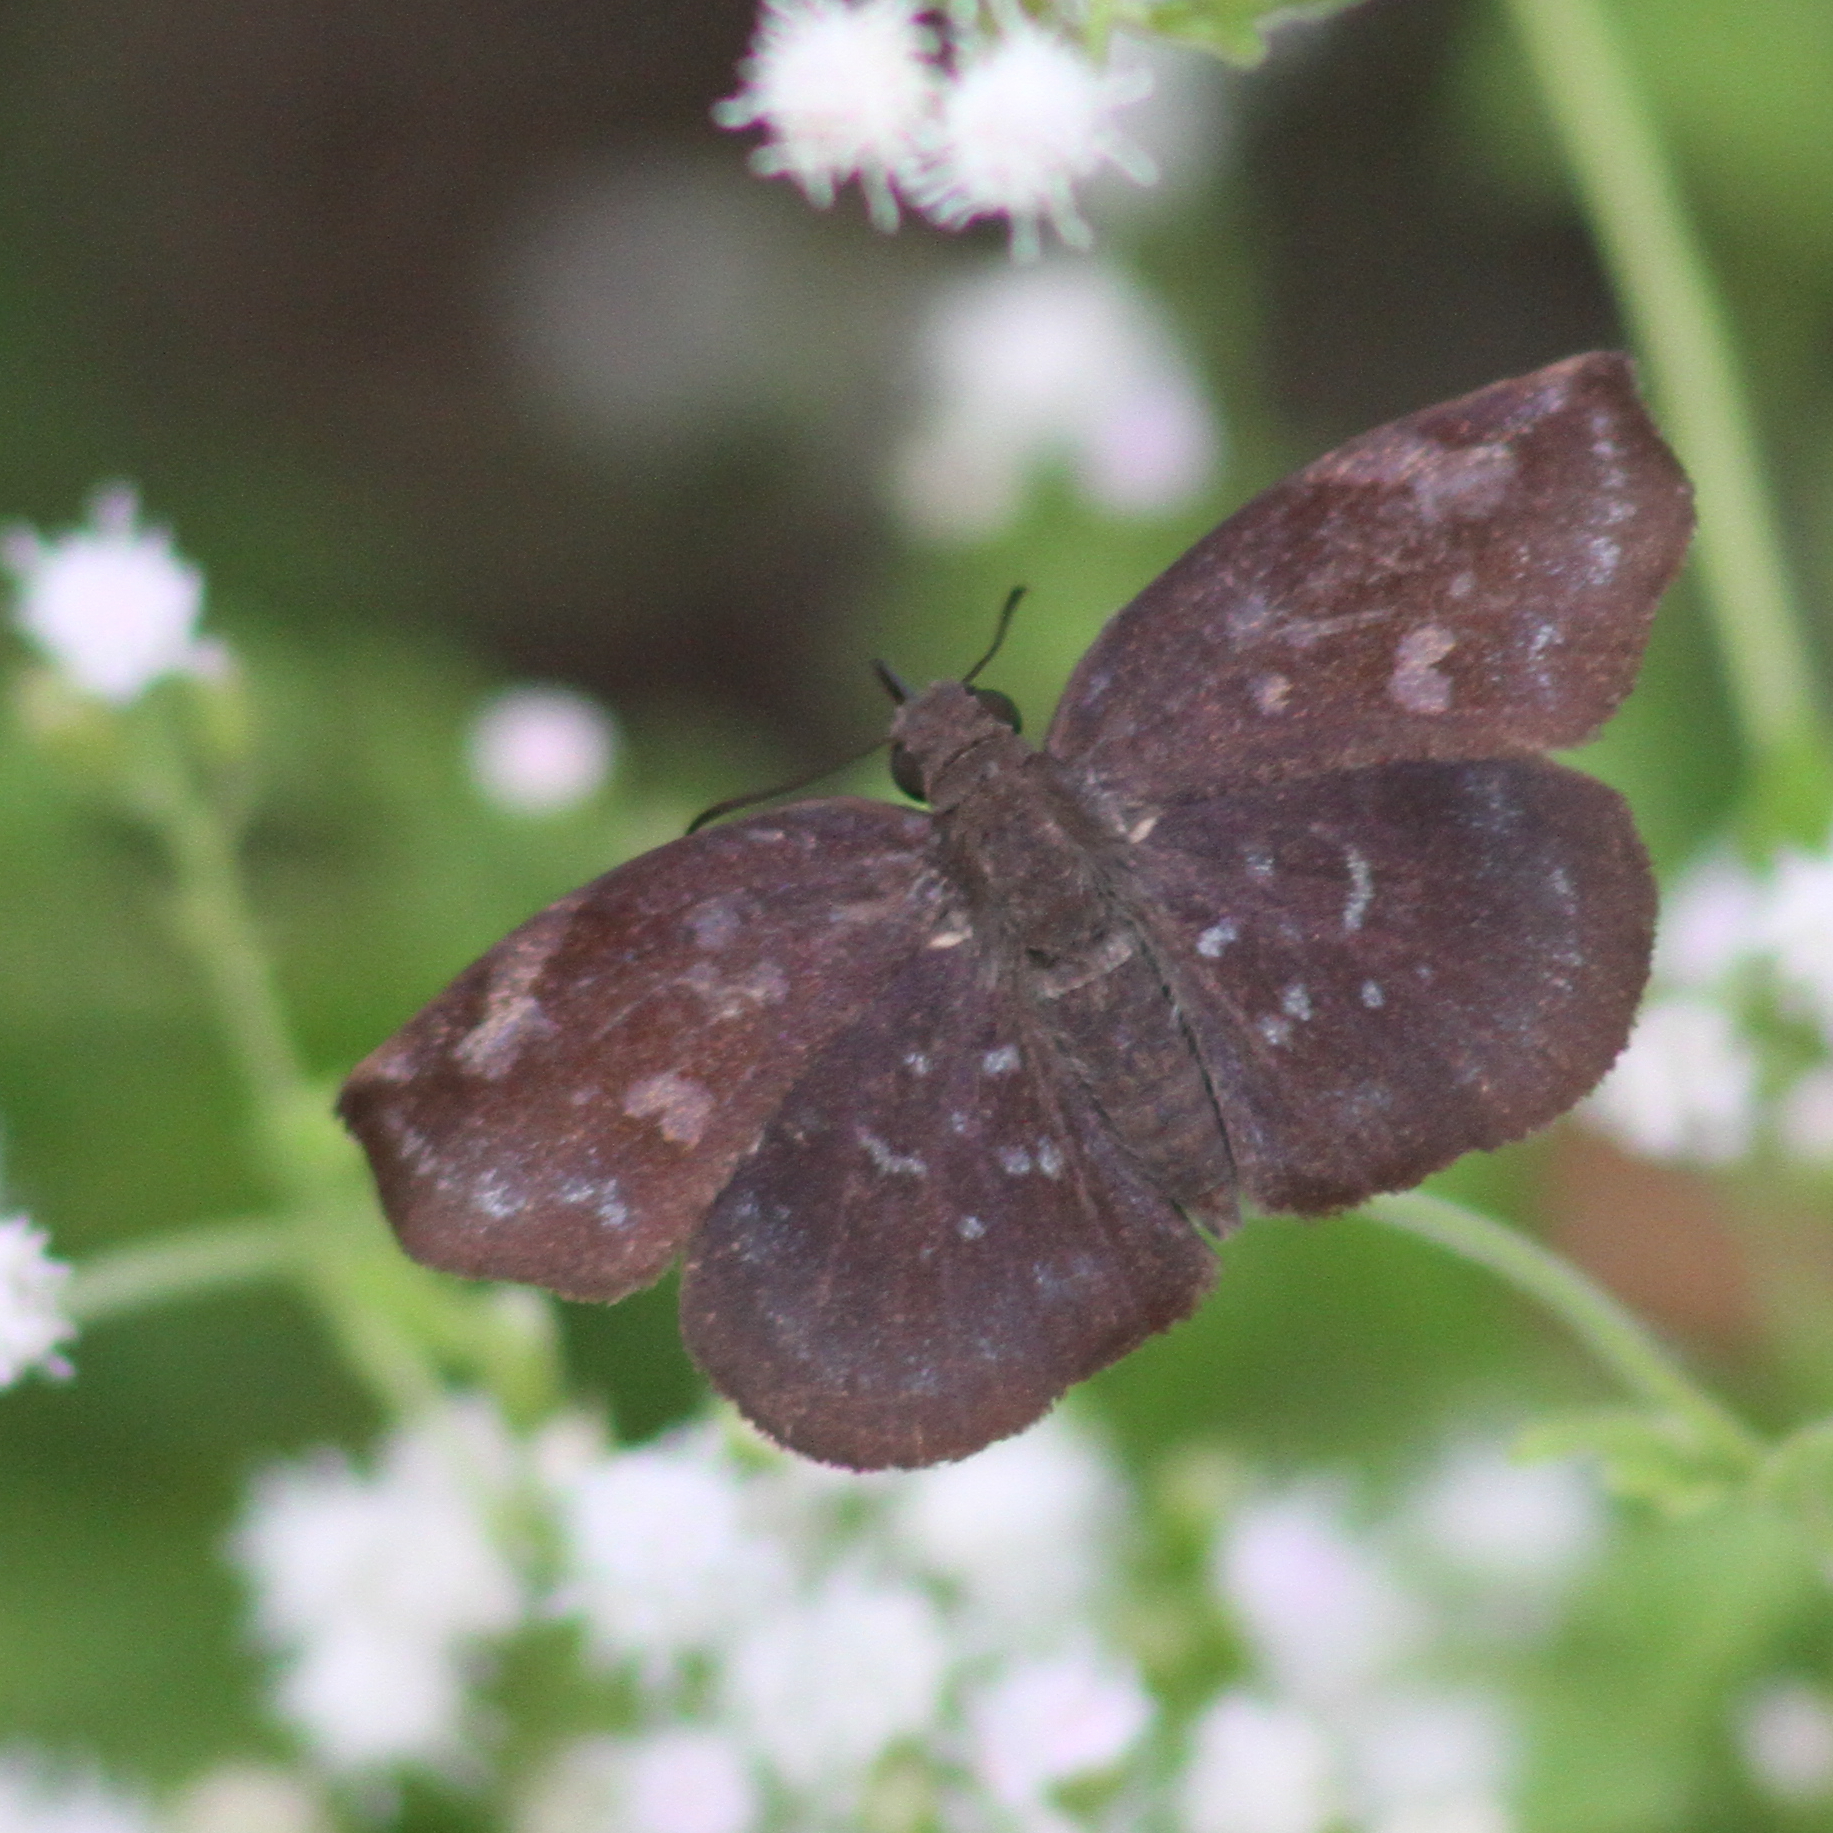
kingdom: Animalia
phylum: Arthropoda
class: Insecta
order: Lepidoptera
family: Hesperiidae
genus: Achlyodes
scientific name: Achlyodes thraso
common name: Sickle-winged skipper
